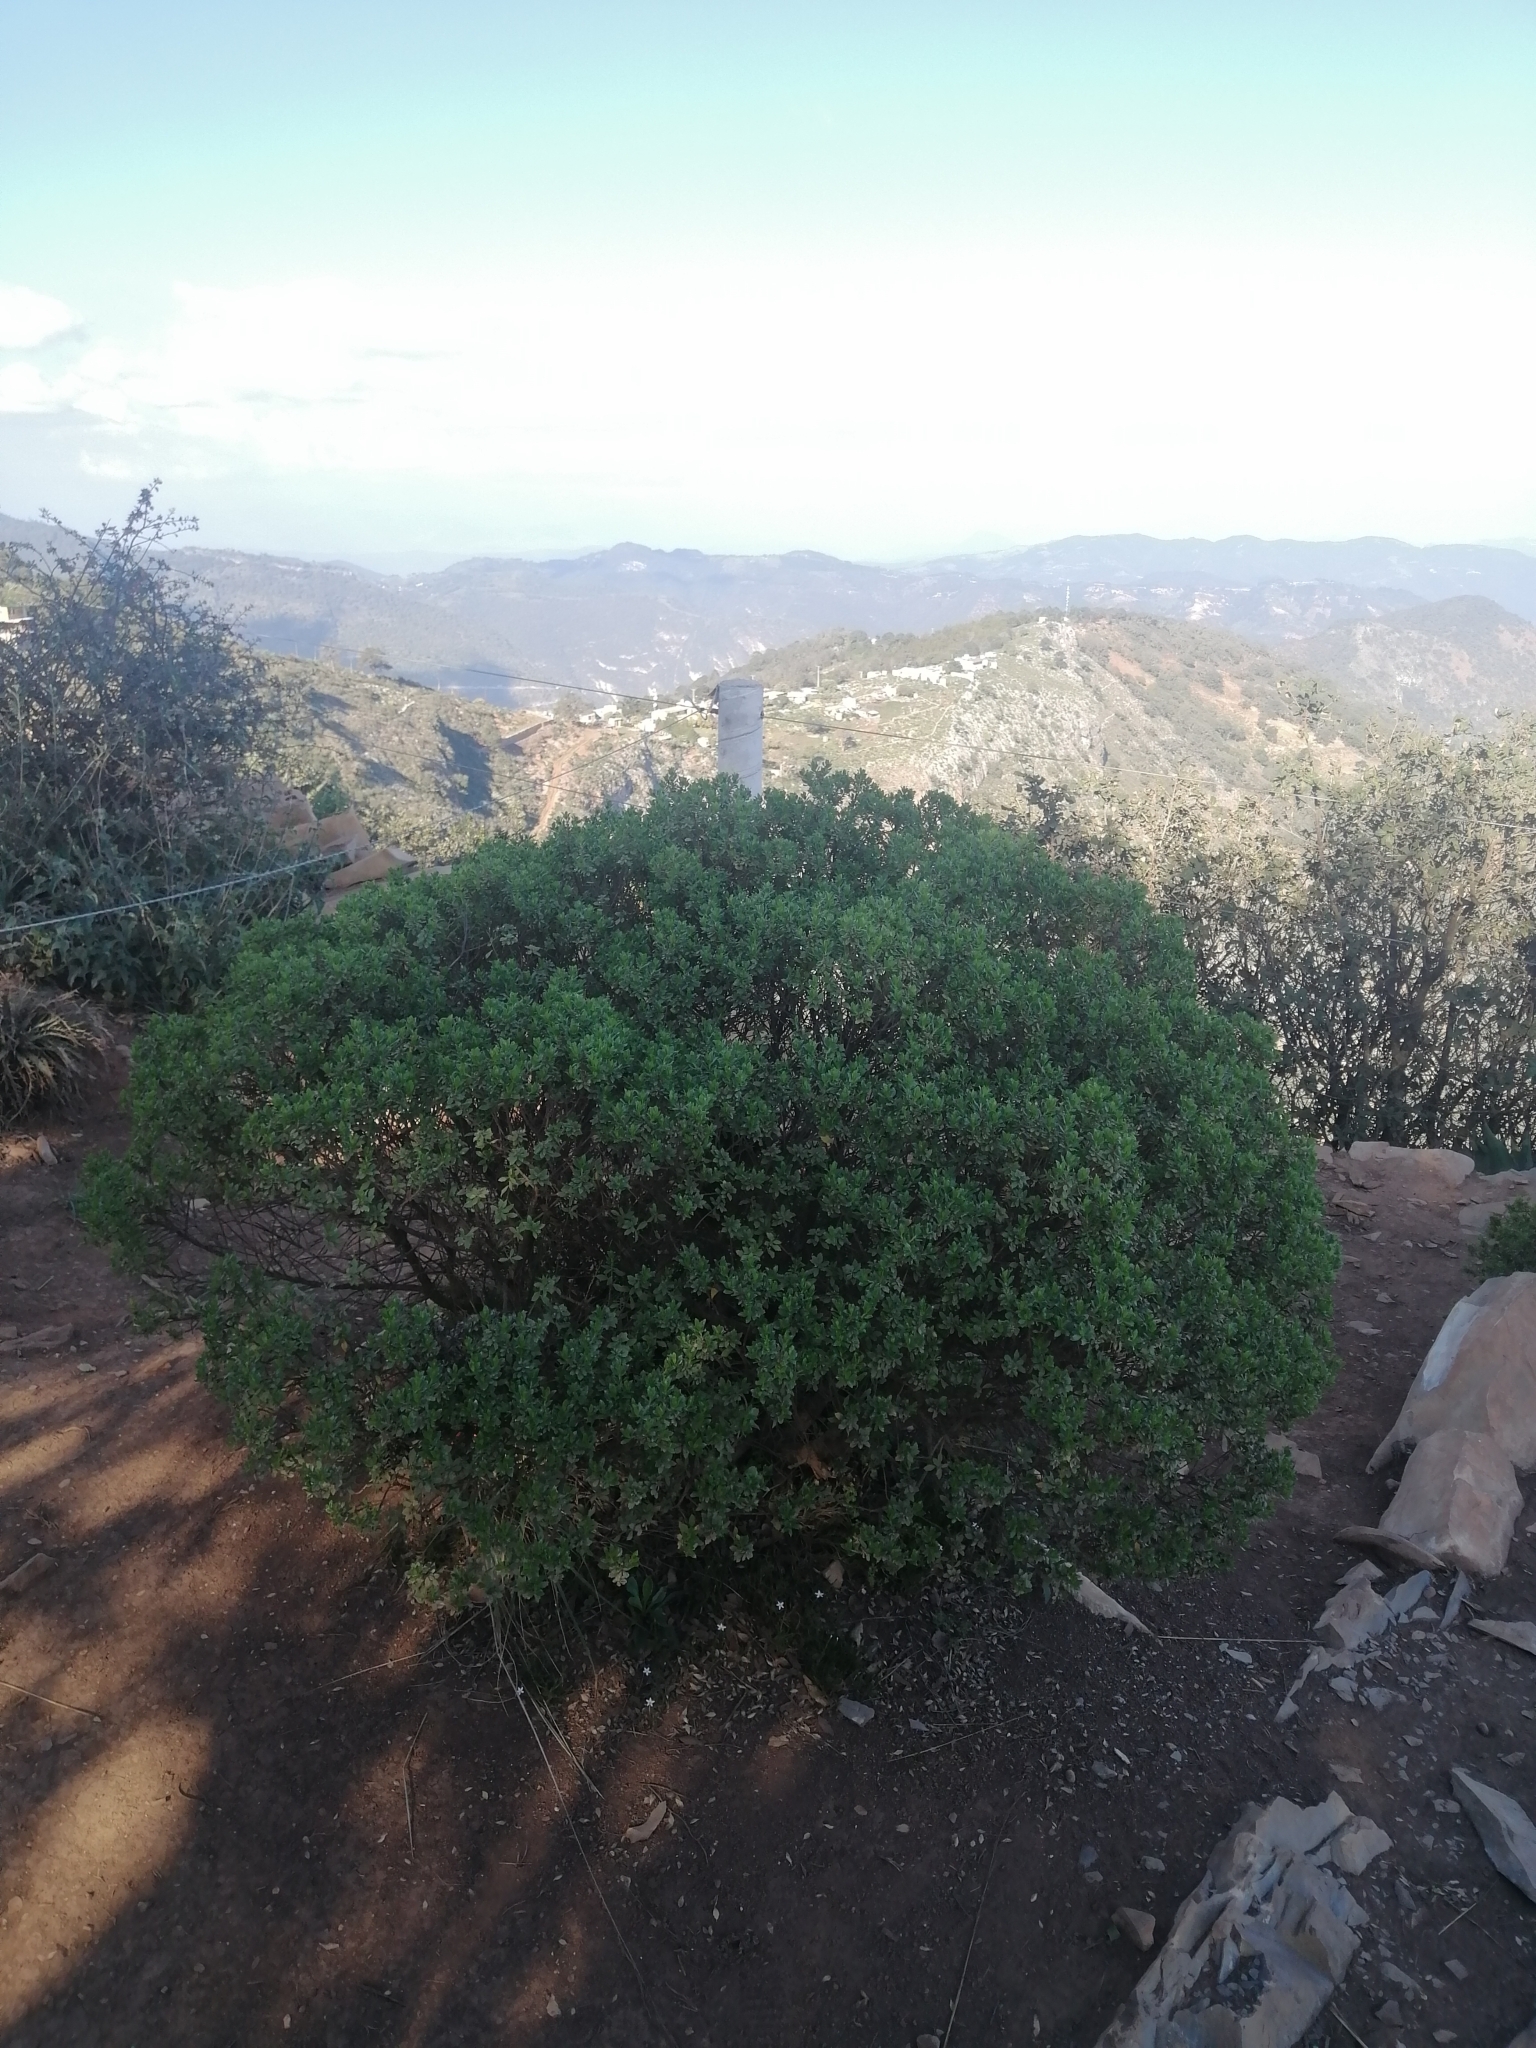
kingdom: Plantae
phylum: Tracheophyta
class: Magnoliopsida
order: Asterales
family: Asteraceae
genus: Baccharis
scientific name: Baccharis conferta
